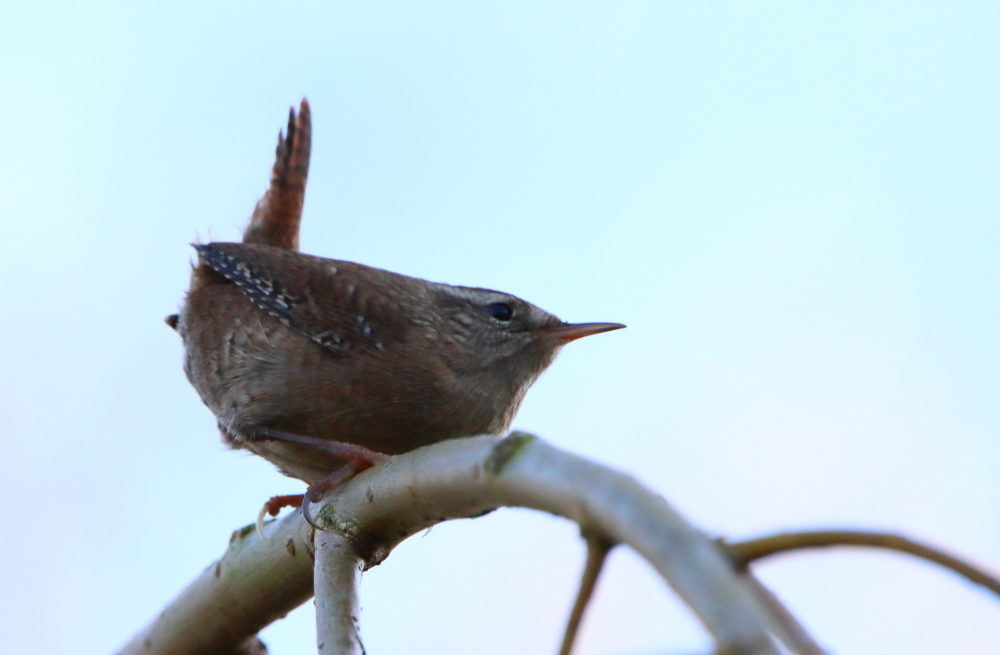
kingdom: Animalia
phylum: Chordata
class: Aves
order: Passeriformes
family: Troglodytidae
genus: Troglodytes
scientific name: Troglodytes troglodytes
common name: Eurasian wren
